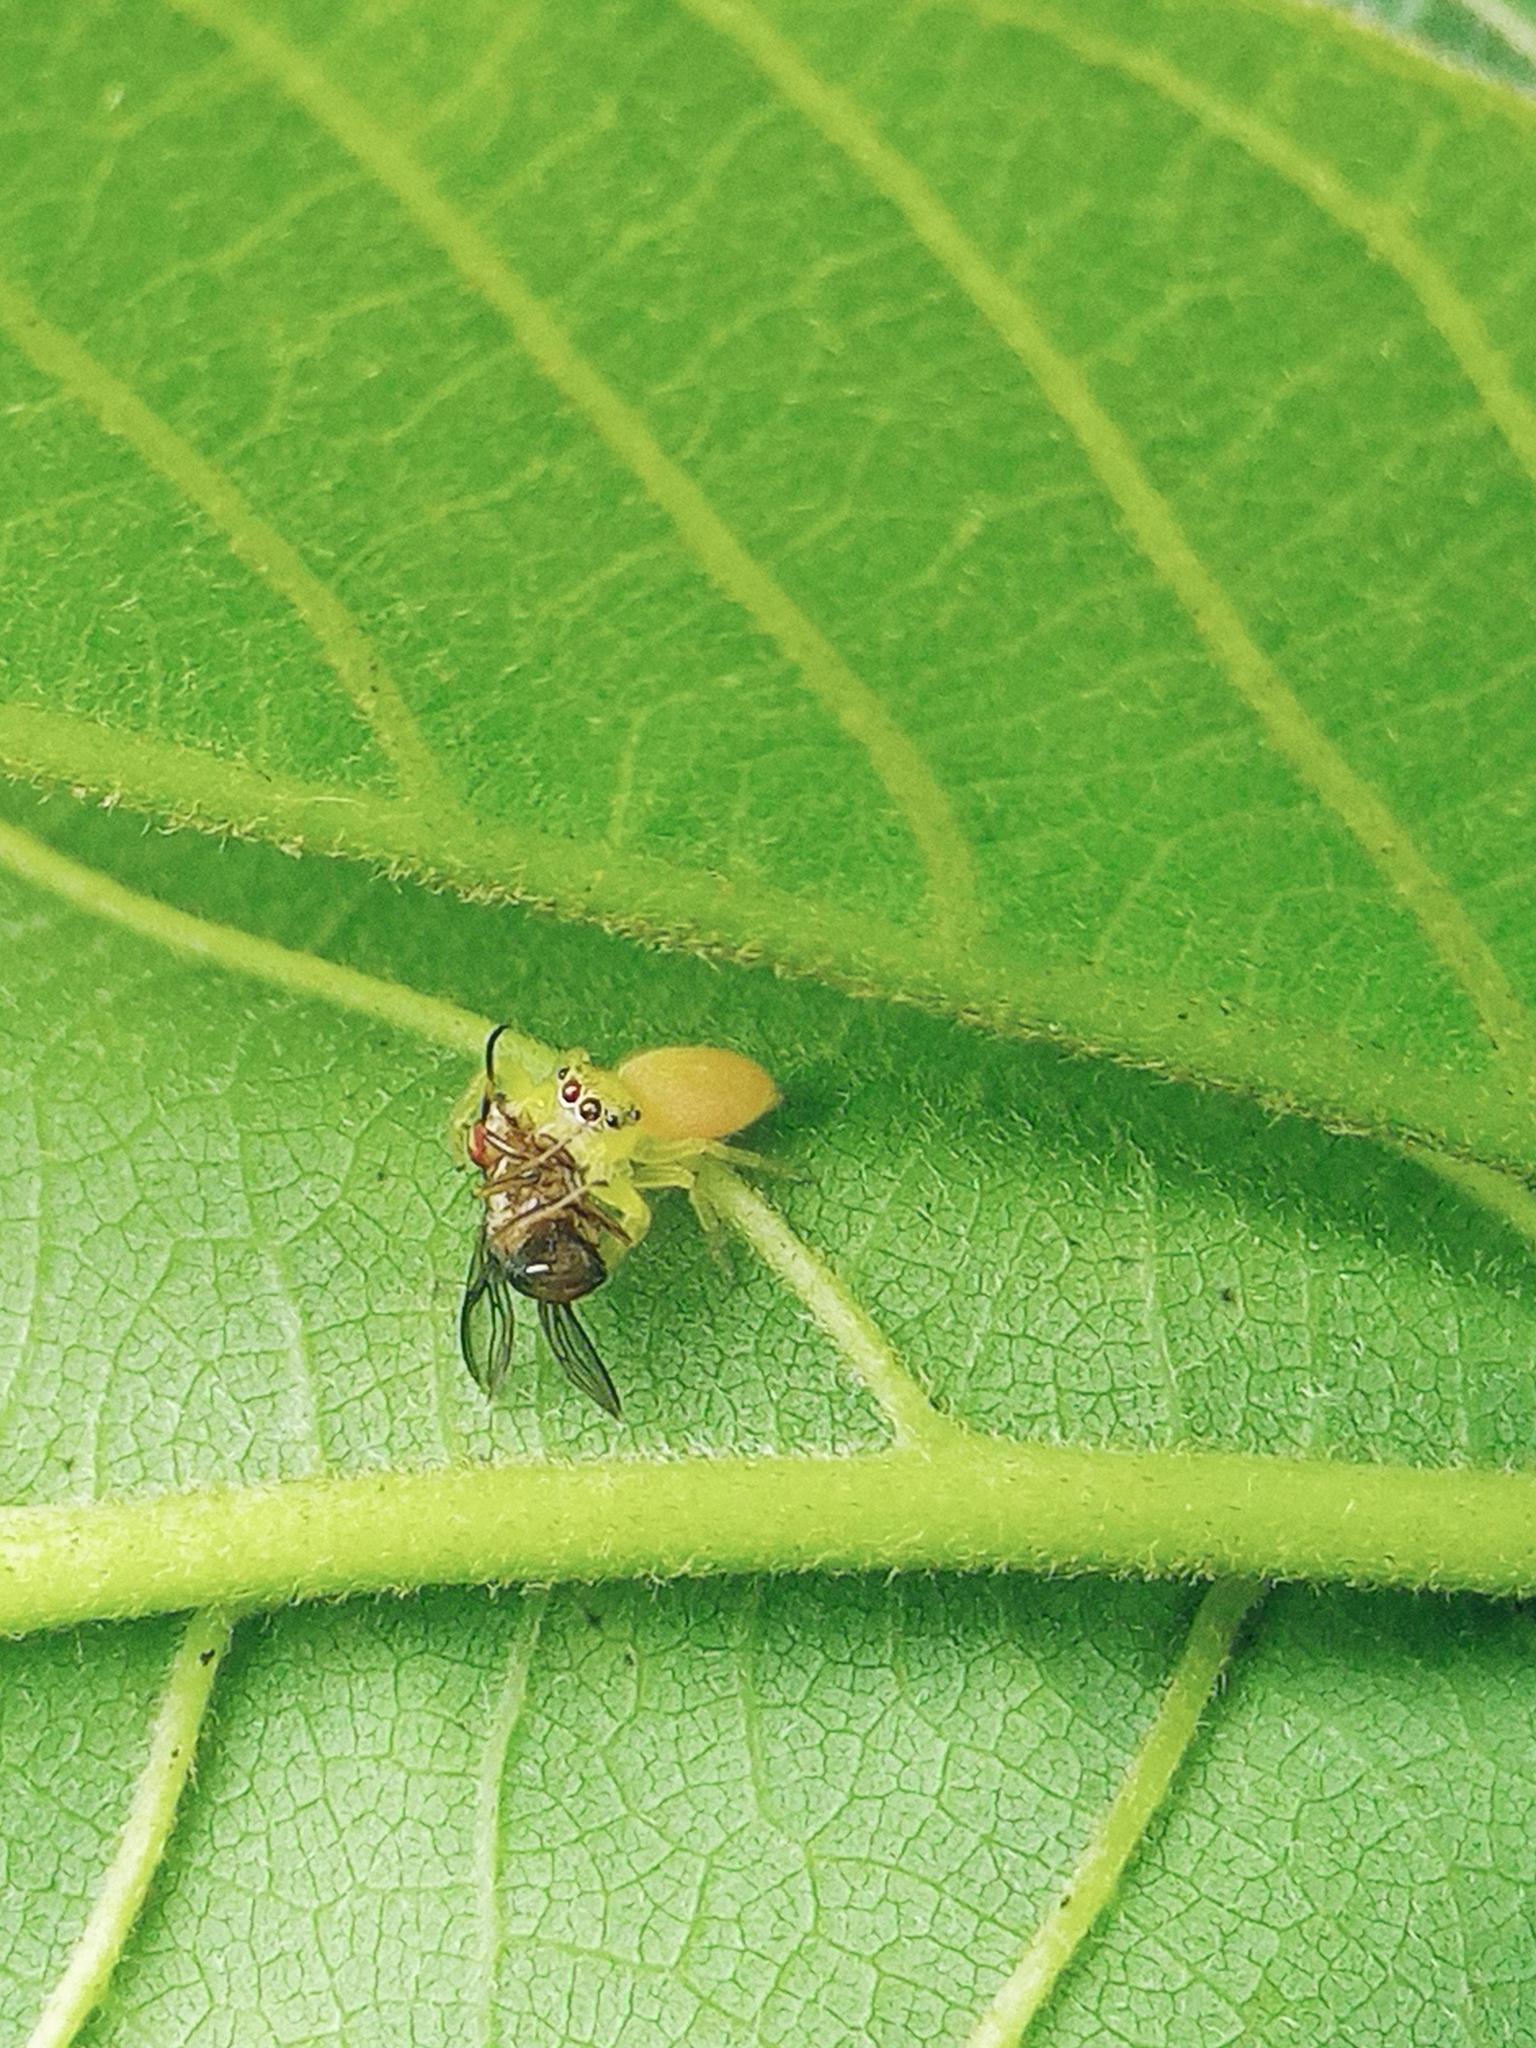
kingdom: Animalia
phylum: Arthropoda
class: Arachnida
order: Araneae
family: Salticidae
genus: Mopsus
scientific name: Mopsus mormon
